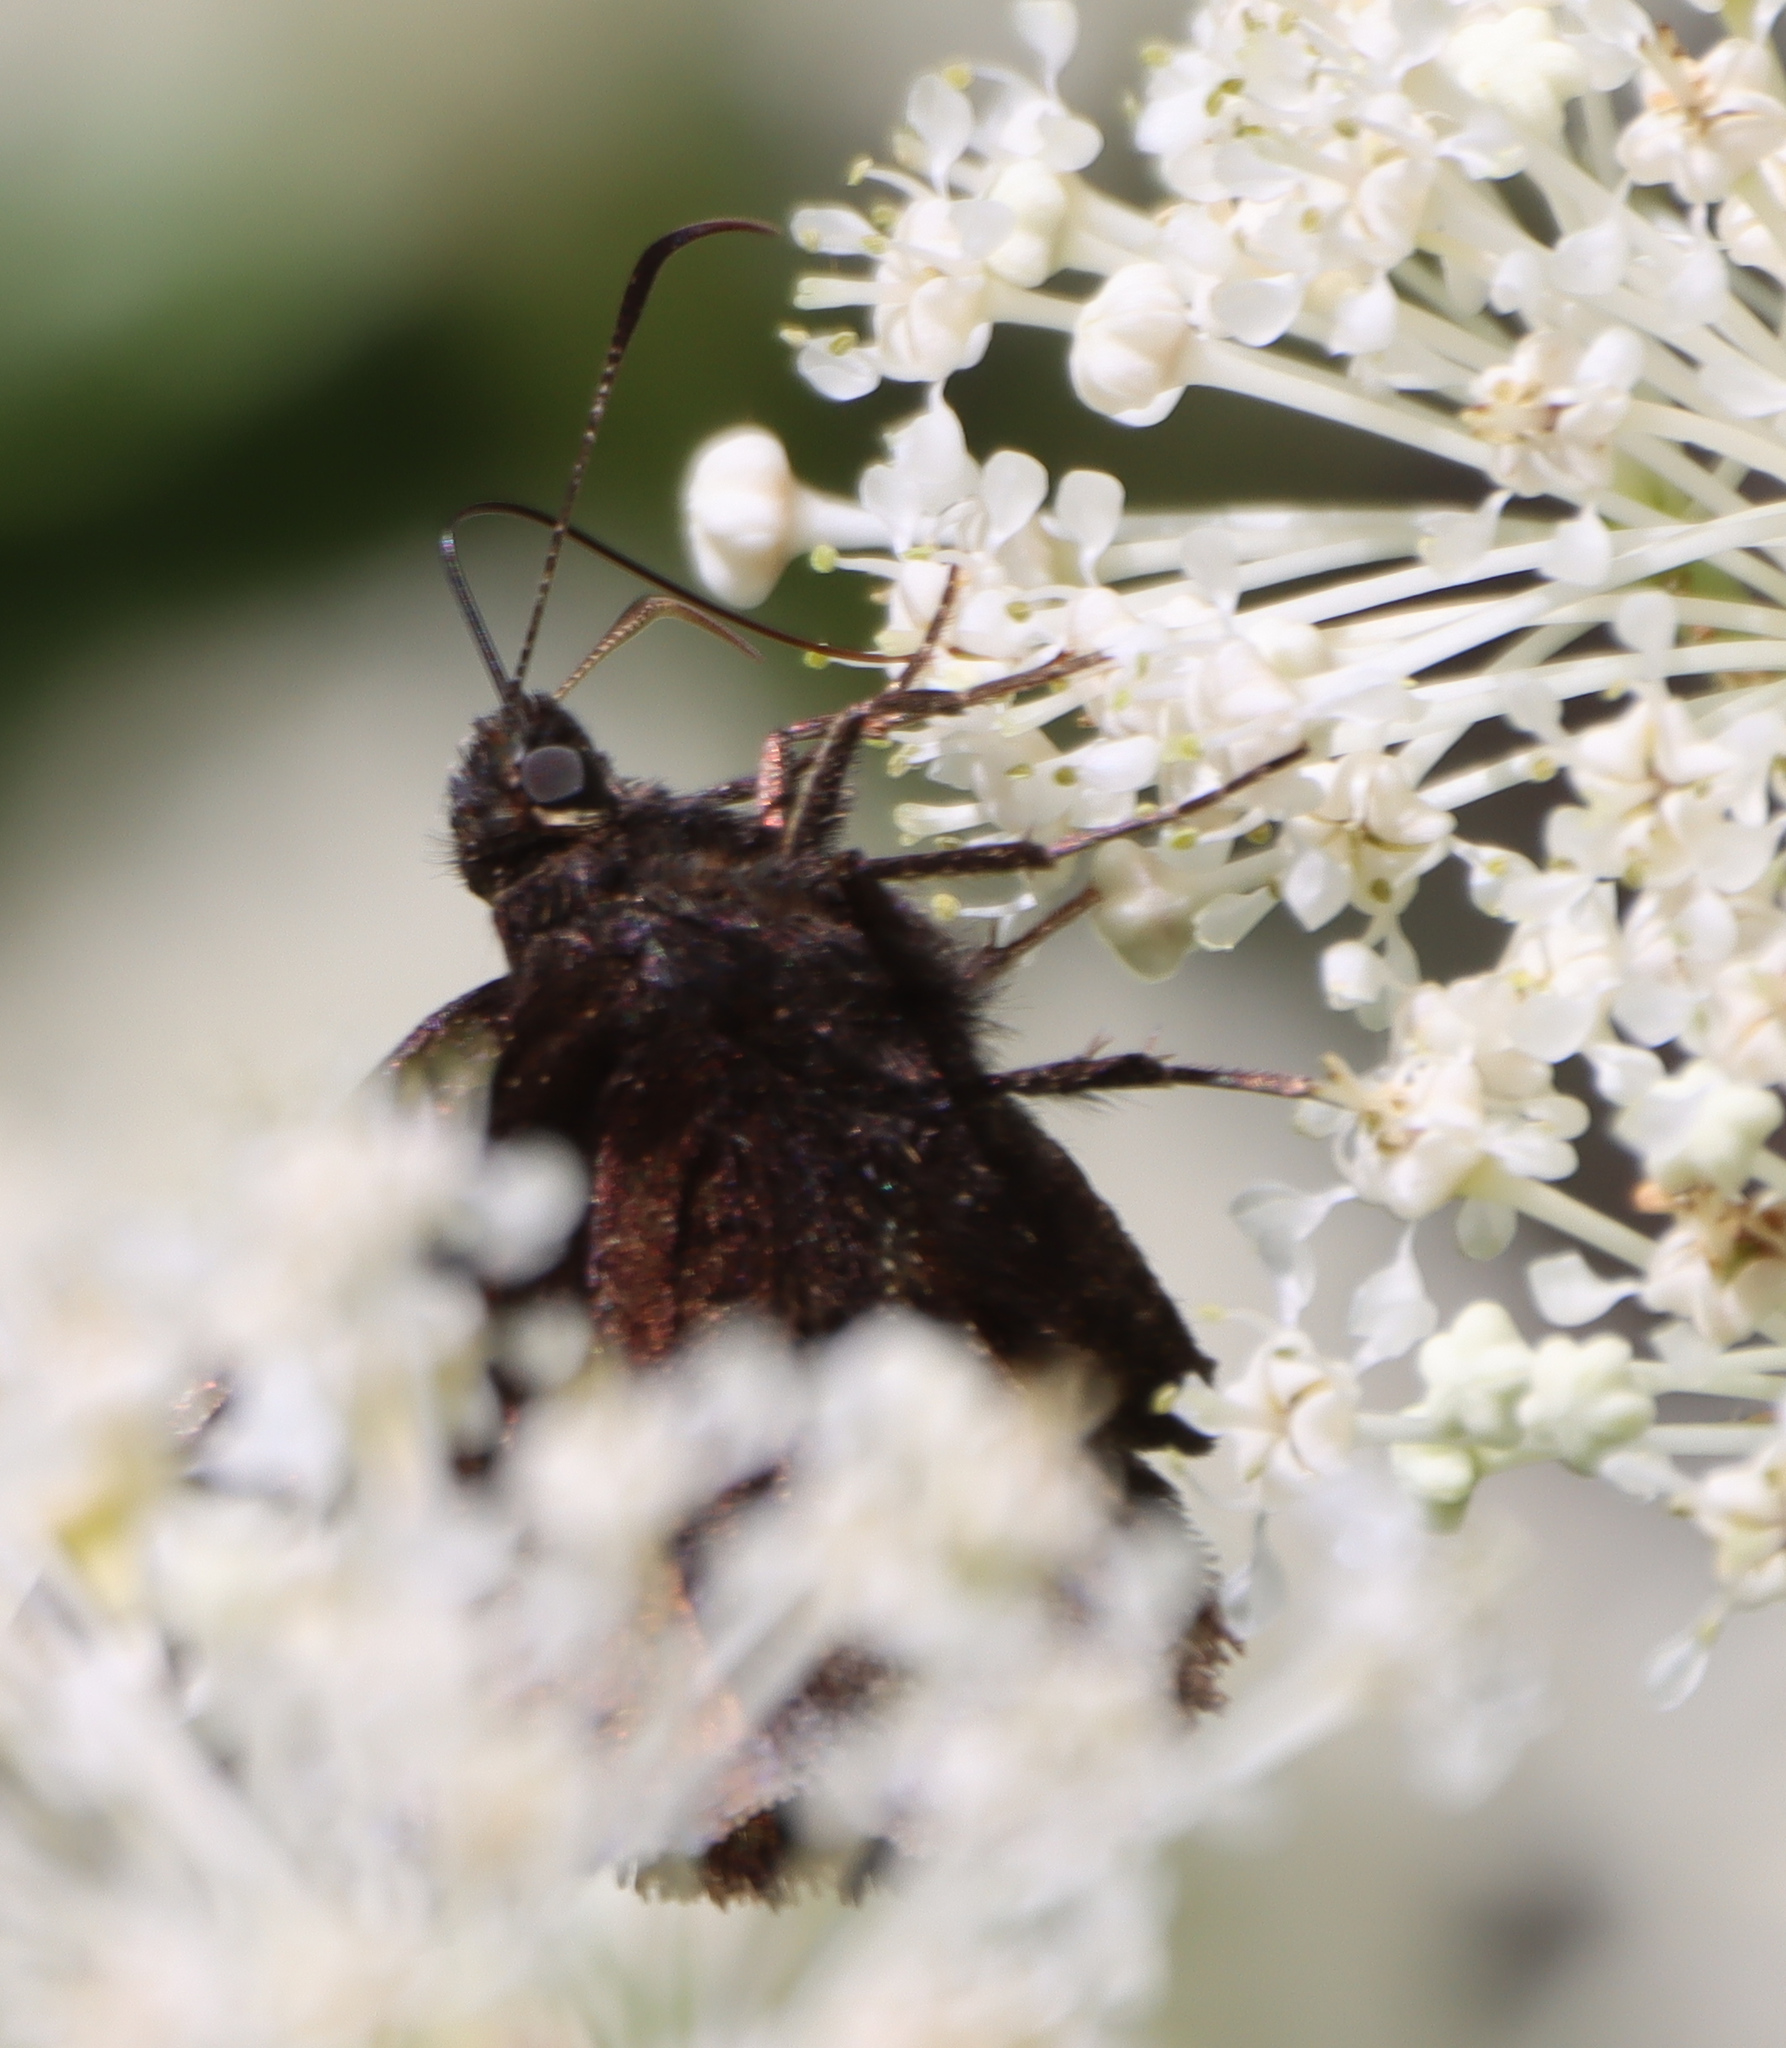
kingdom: Animalia
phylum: Arthropoda
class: Insecta
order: Lepidoptera
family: Hesperiidae
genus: Thorybes
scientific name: Thorybes pylades
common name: Northern cloudywing
